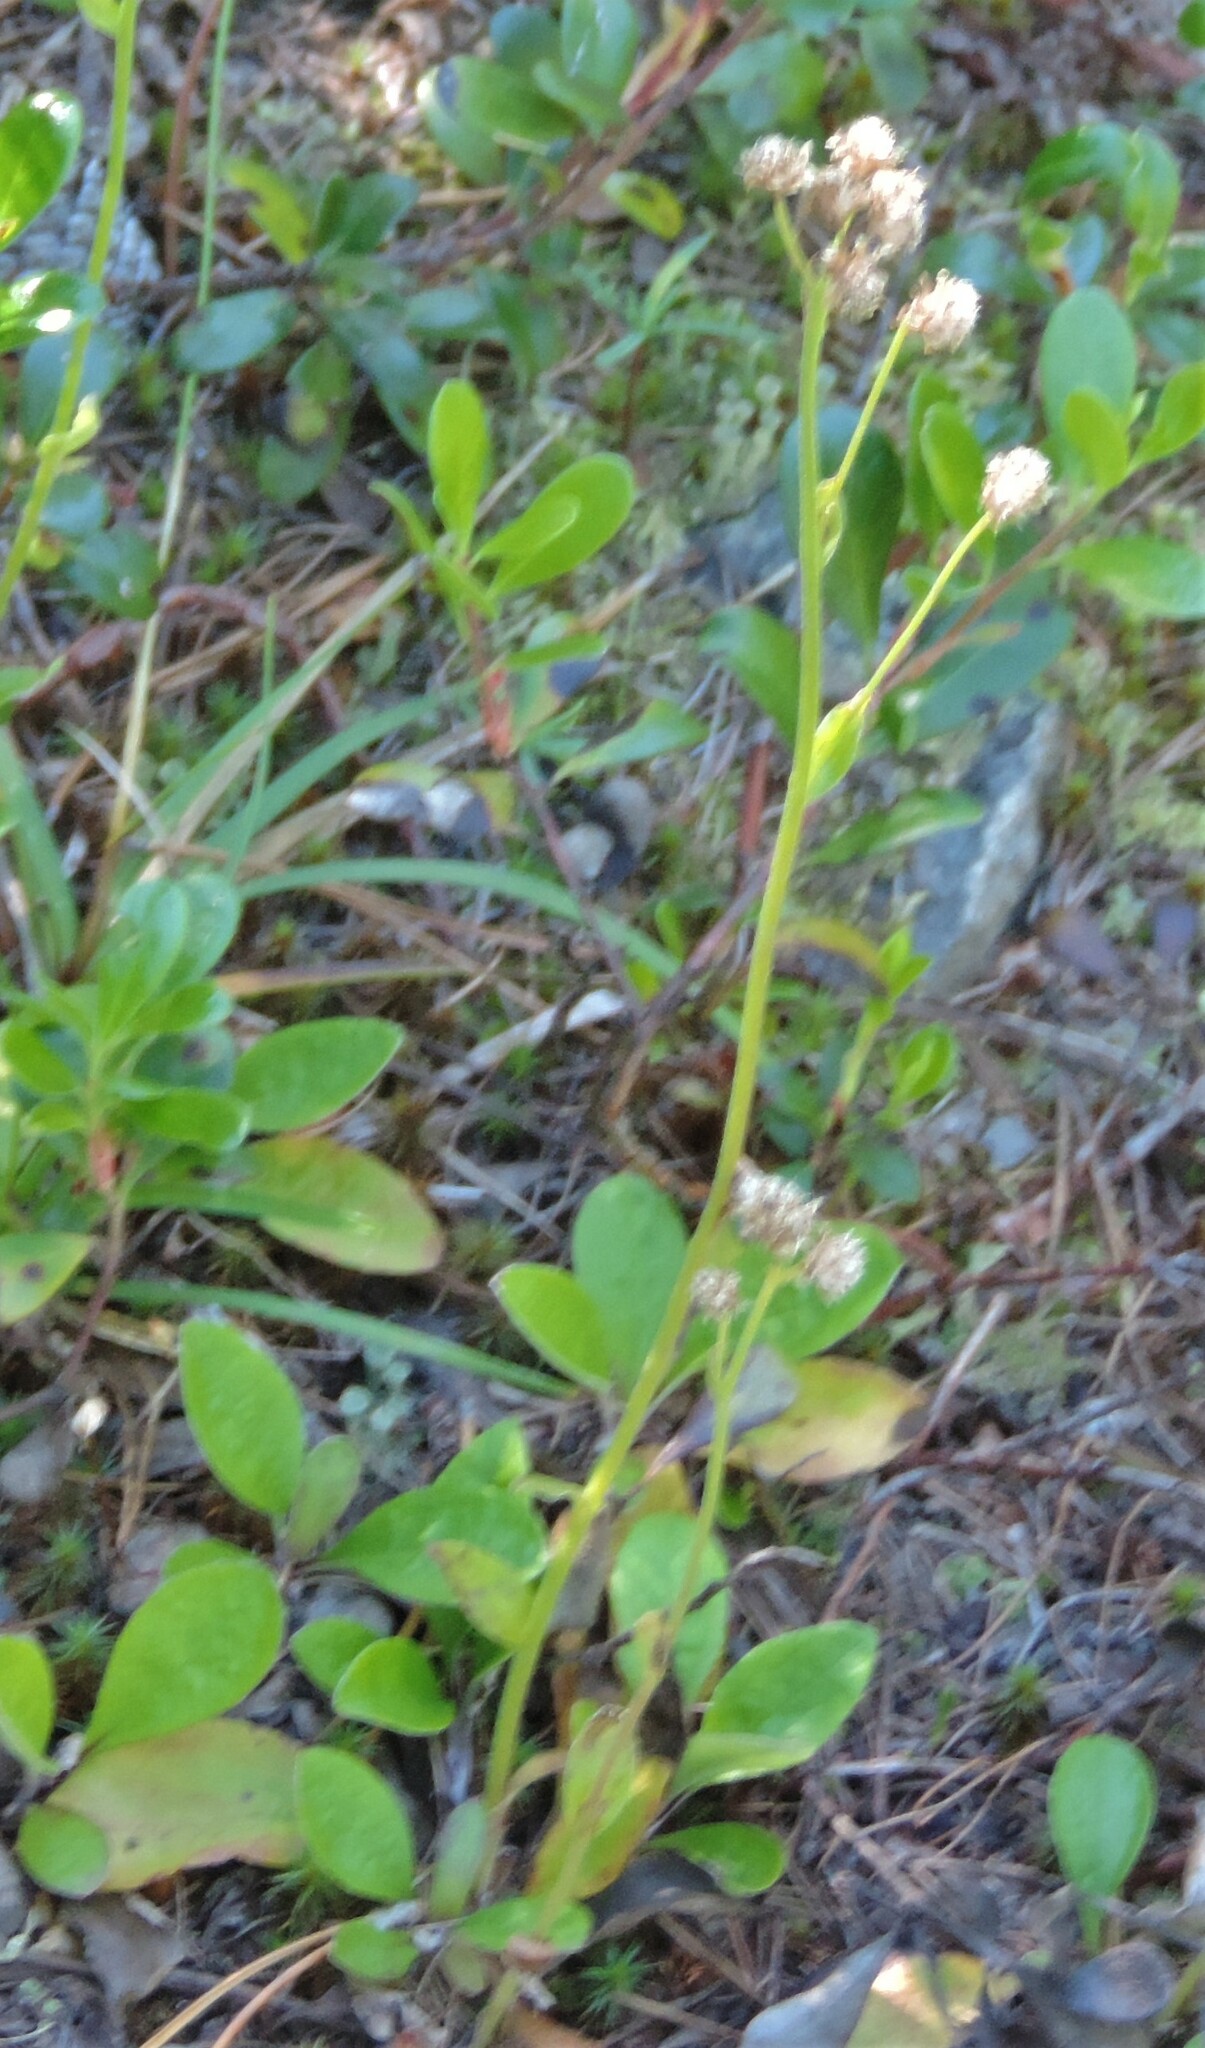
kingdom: Plantae
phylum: Tracheophyta
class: Magnoliopsida
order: Asterales
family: Asteraceae
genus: Antennaria
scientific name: Antennaria racemosa
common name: Racemose pussytoes
